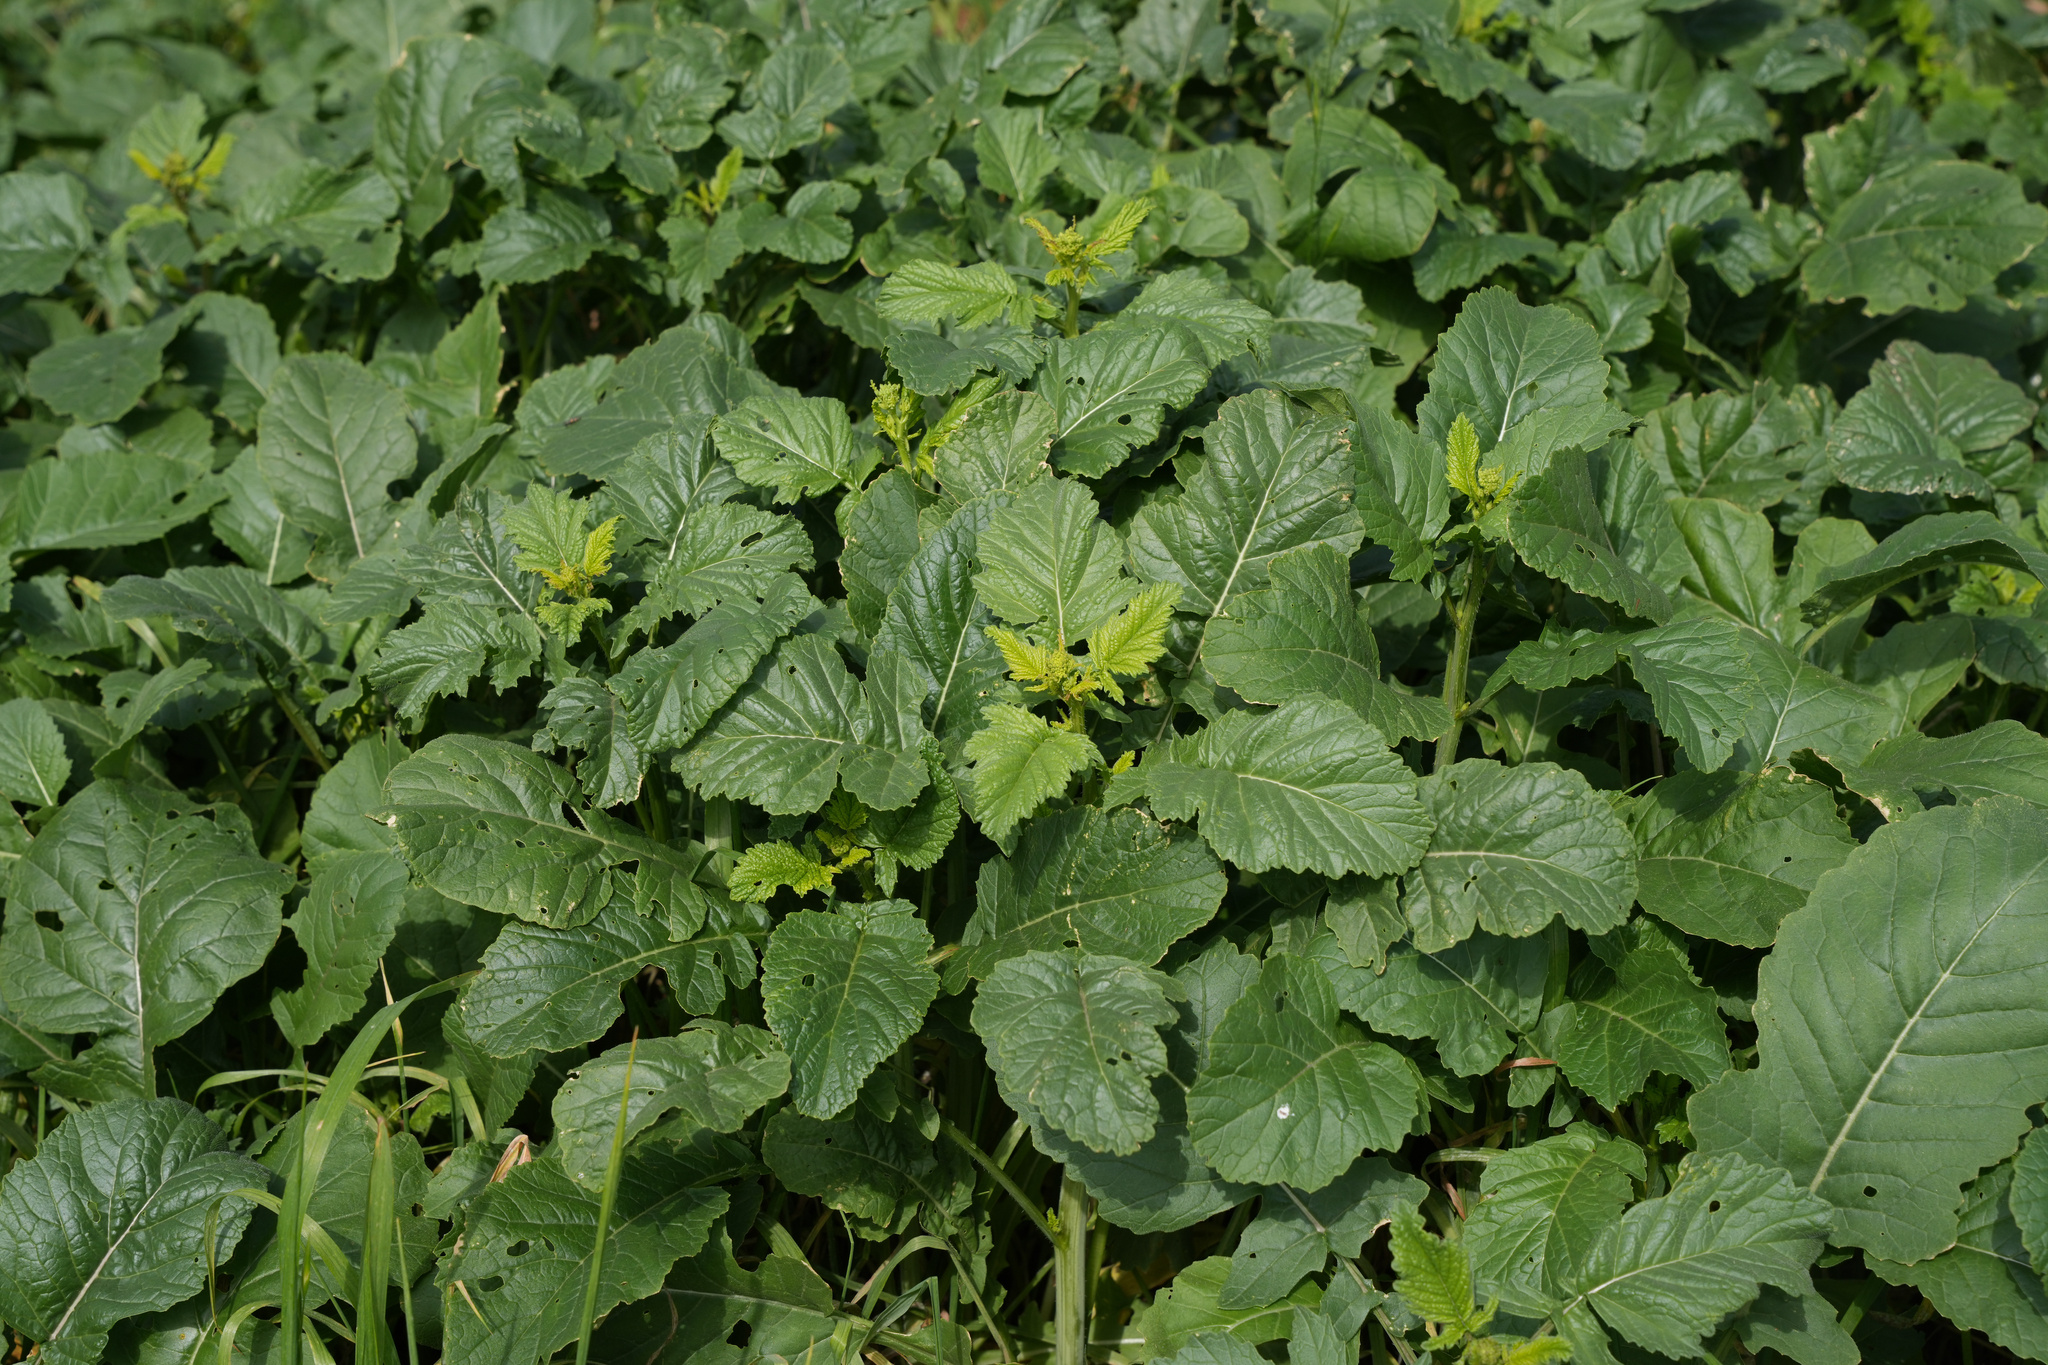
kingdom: Plantae
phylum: Tracheophyta
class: Magnoliopsida
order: Brassicales
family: Brassicaceae
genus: Rapistrum
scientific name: Rapistrum rugosum
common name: Annual bastardcabbage
